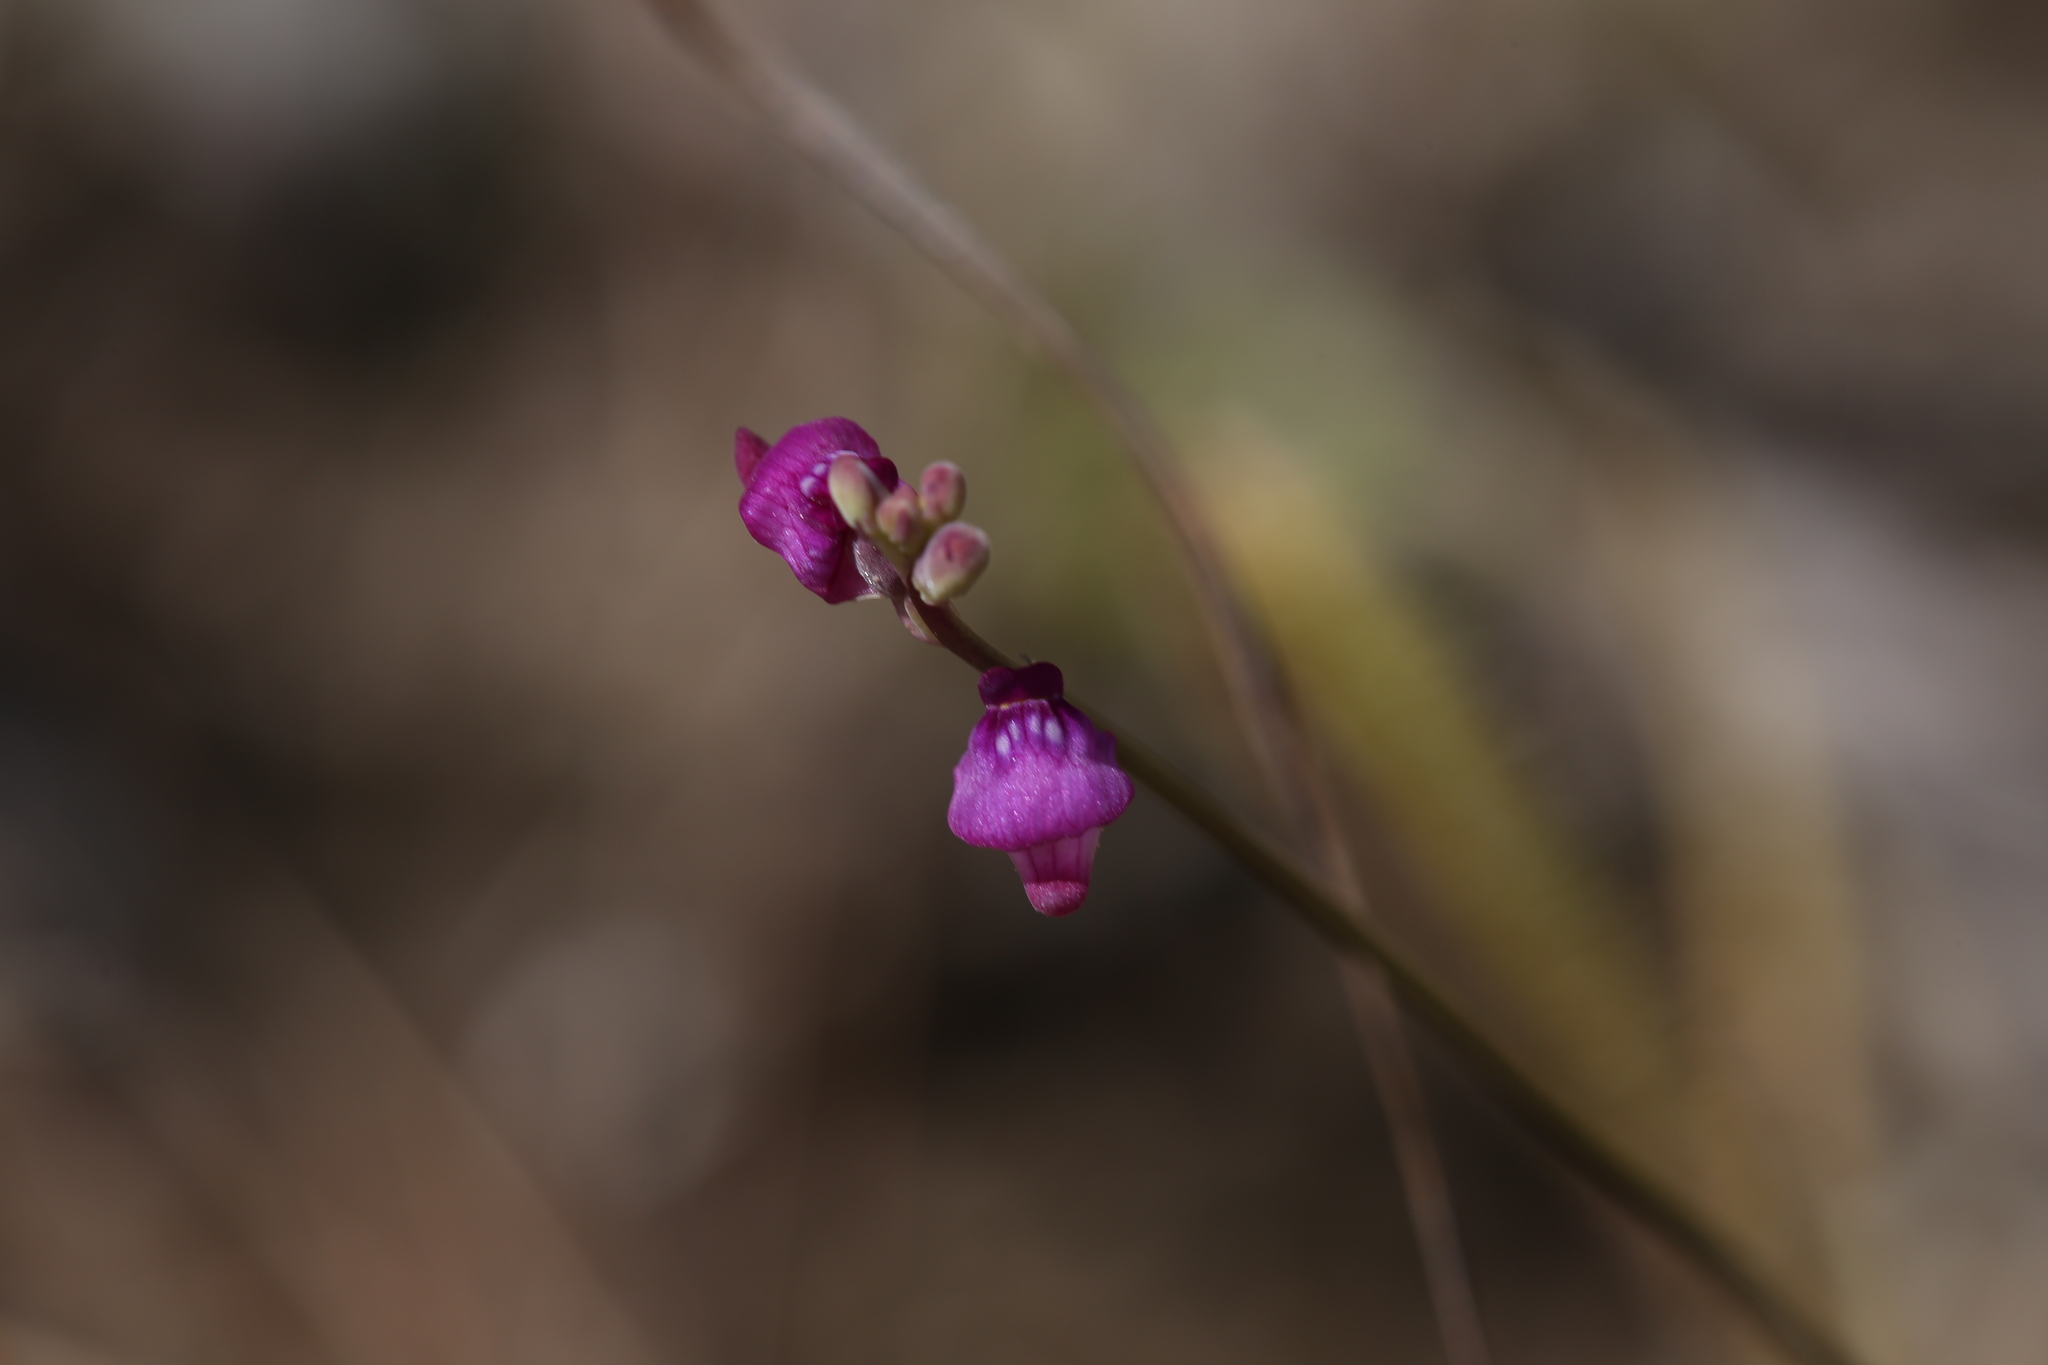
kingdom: Plantae
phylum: Tracheophyta
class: Magnoliopsida
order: Lamiales
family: Lentibulariaceae
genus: Utricularia
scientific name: Utricularia caerulea
